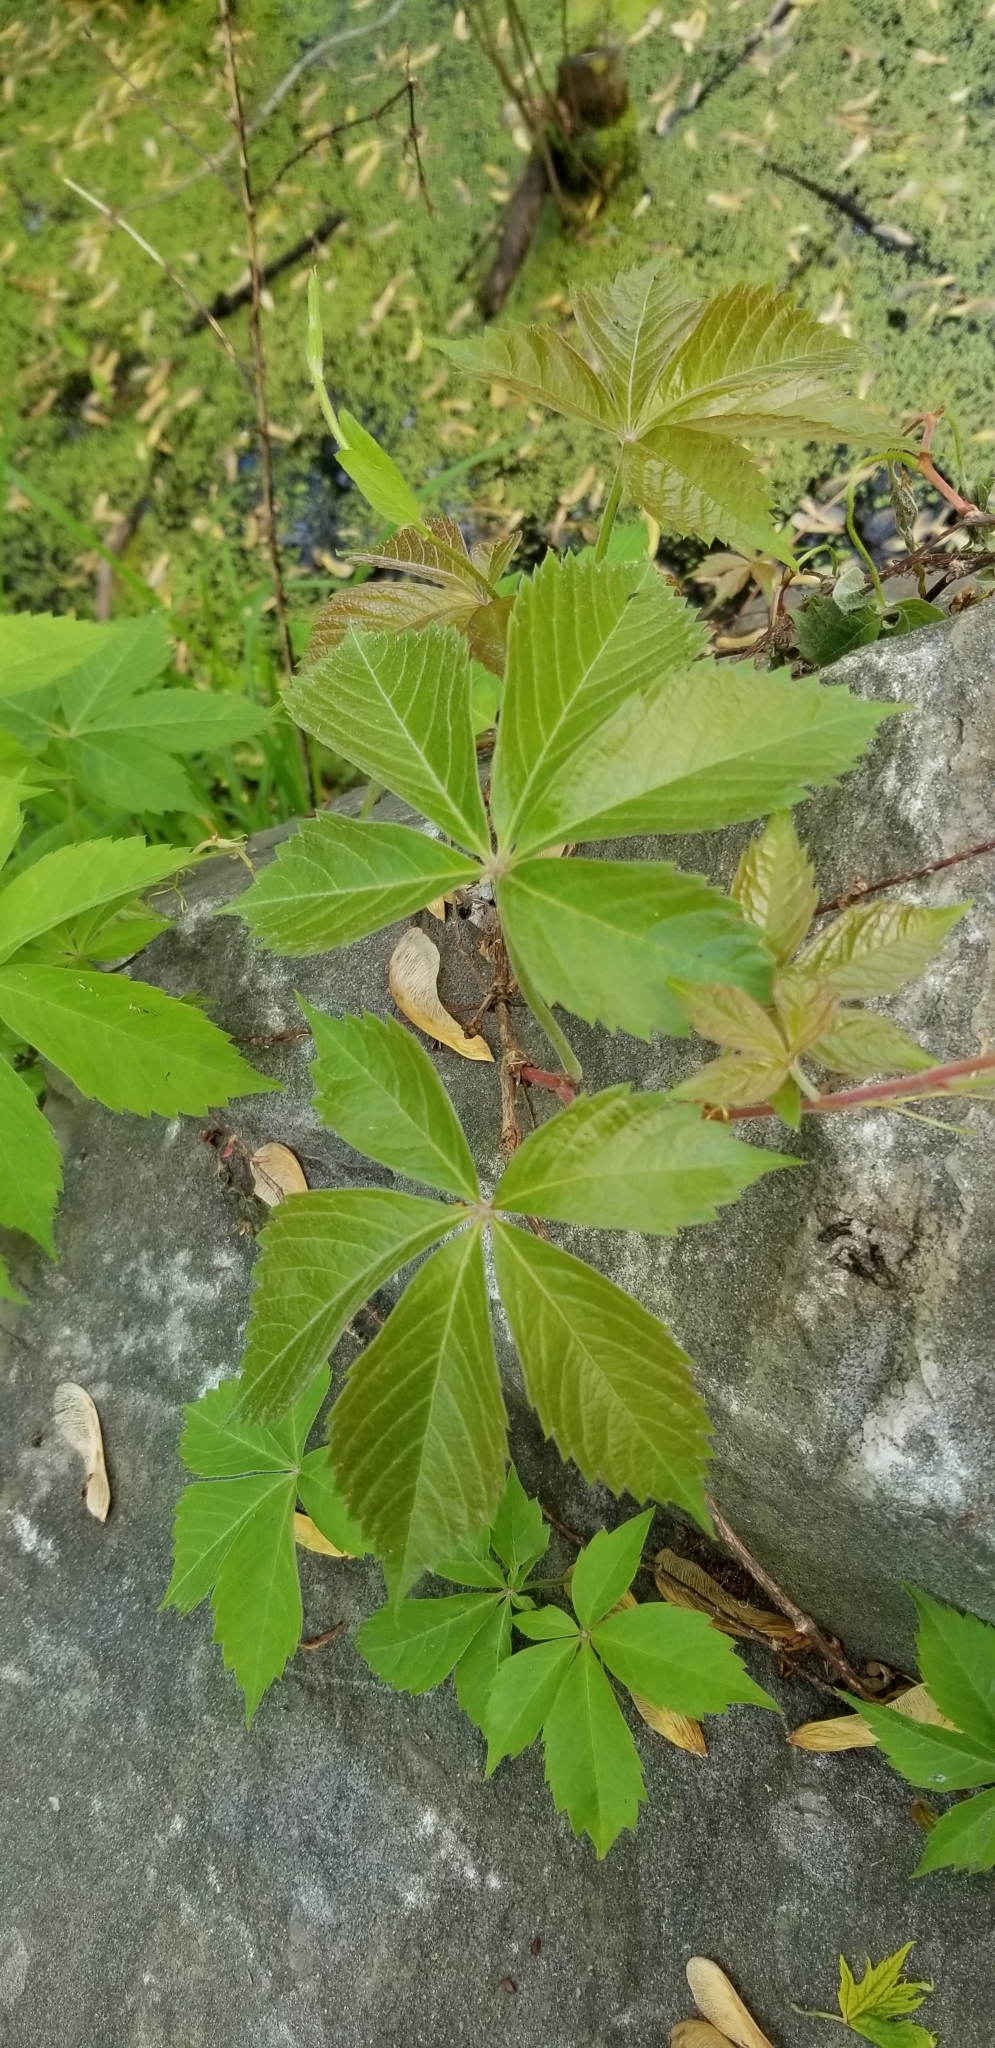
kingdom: Plantae
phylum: Tracheophyta
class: Magnoliopsida
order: Vitales
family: Vitaceae
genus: Parthenocissus
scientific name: Parthenocissus quinquefolia
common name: Virginia-creeper
